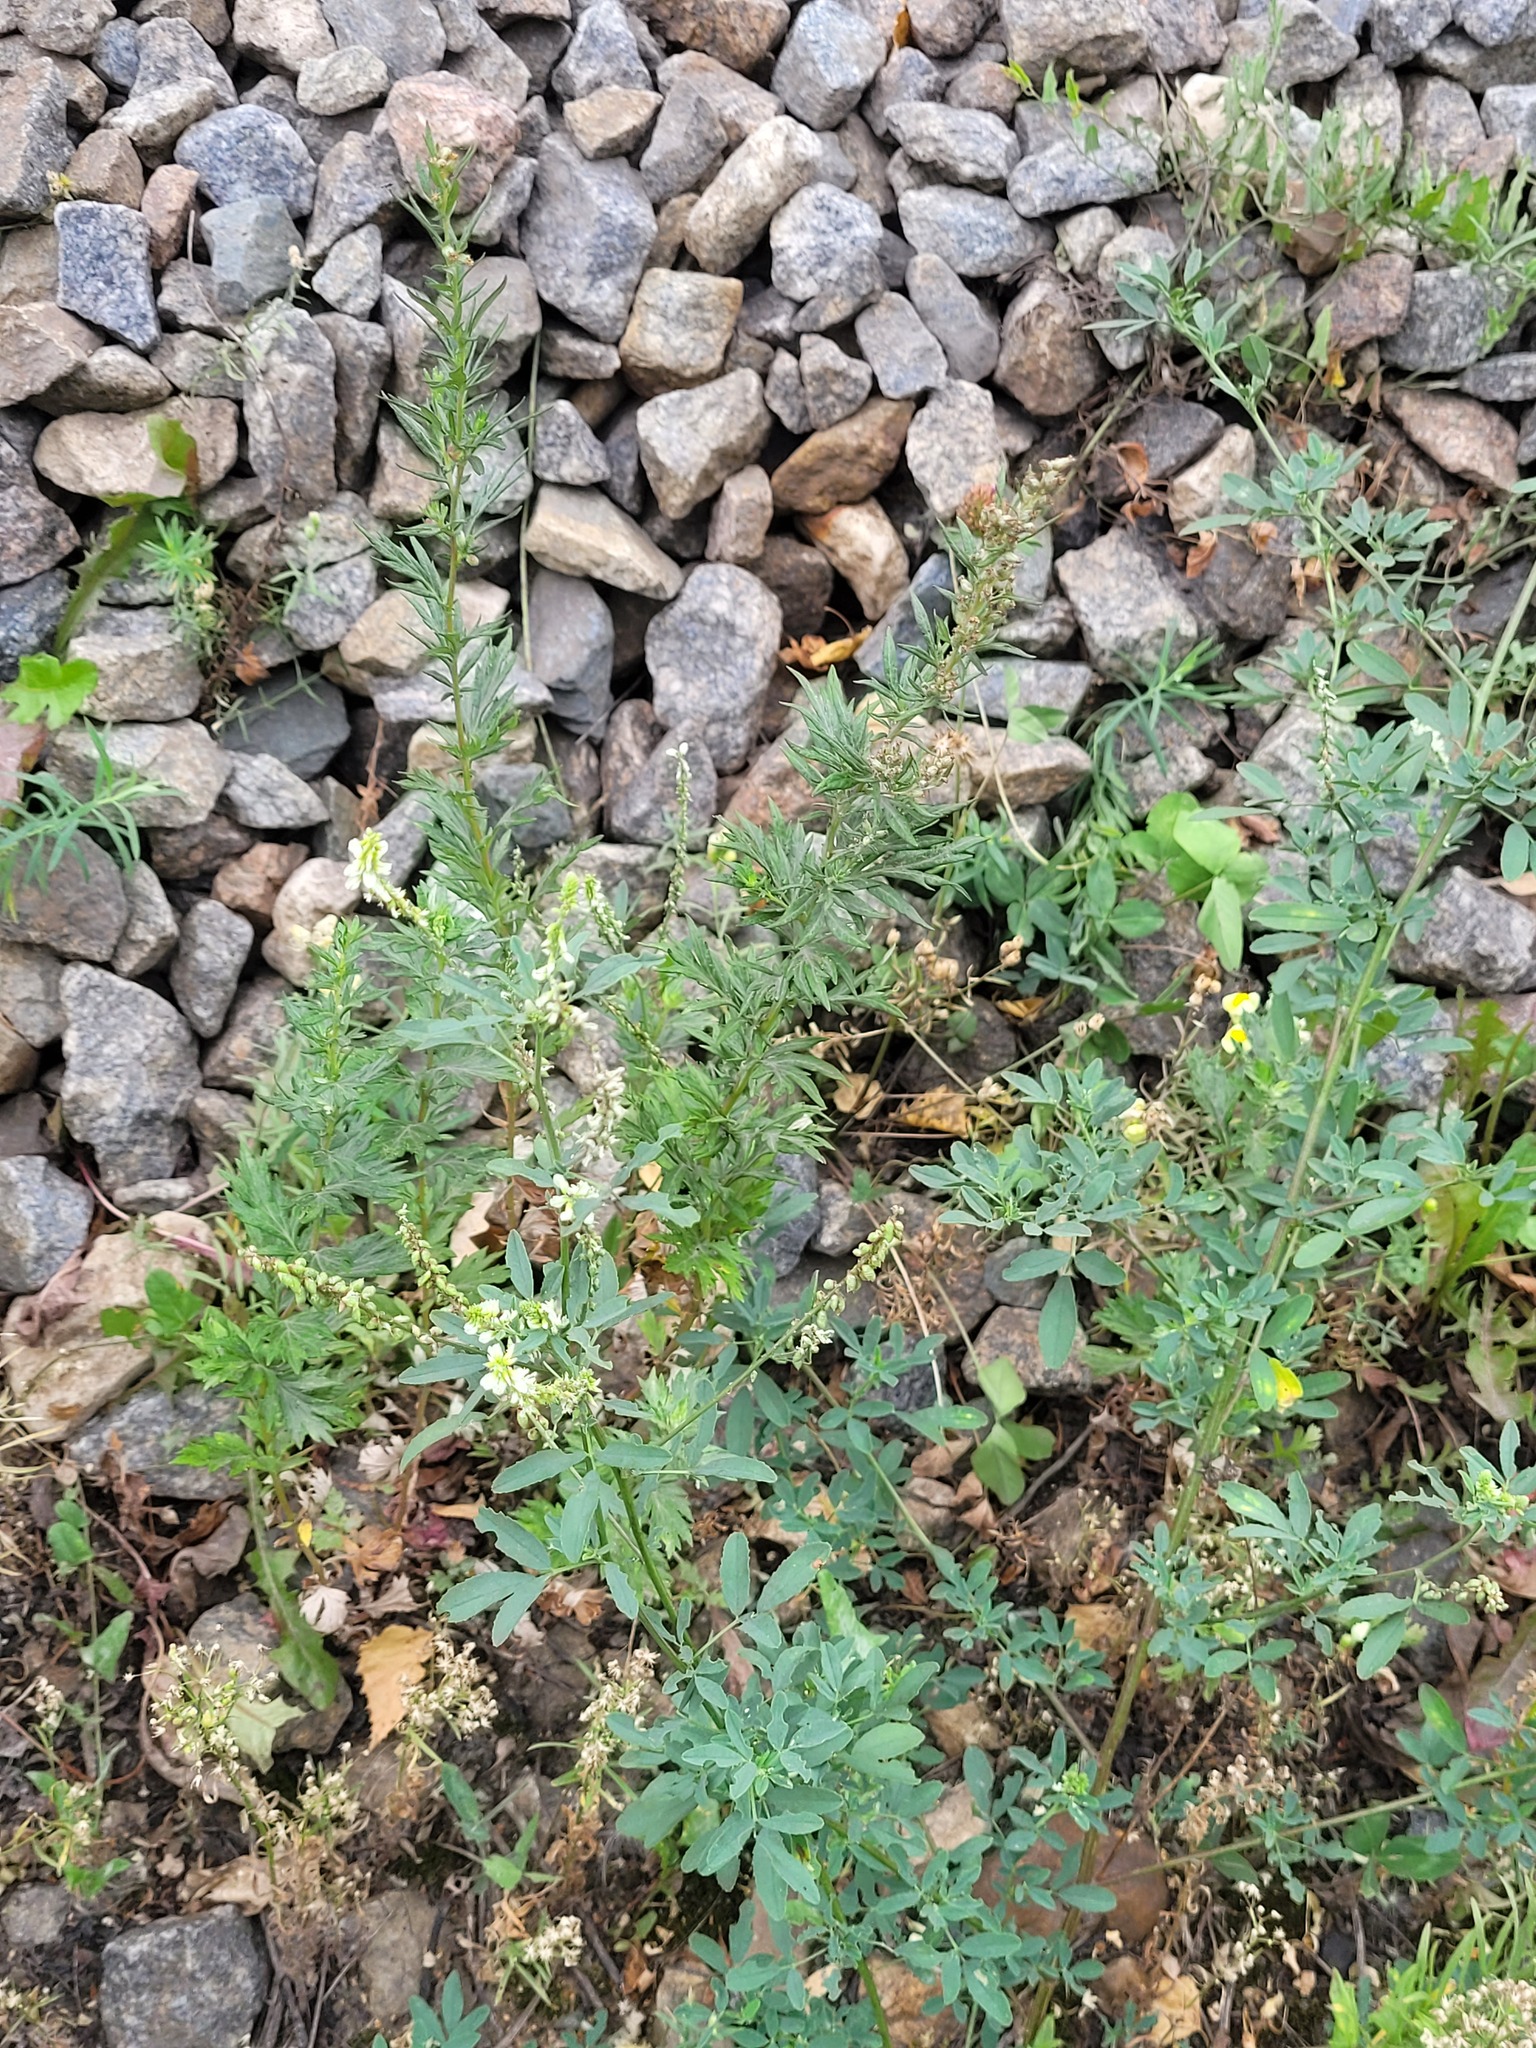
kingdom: Plantae
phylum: Tracheophyta
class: Magnoliopsida
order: Fabales
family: Fabaceae
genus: Melilotus
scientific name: Melilotus albus
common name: White melilot
